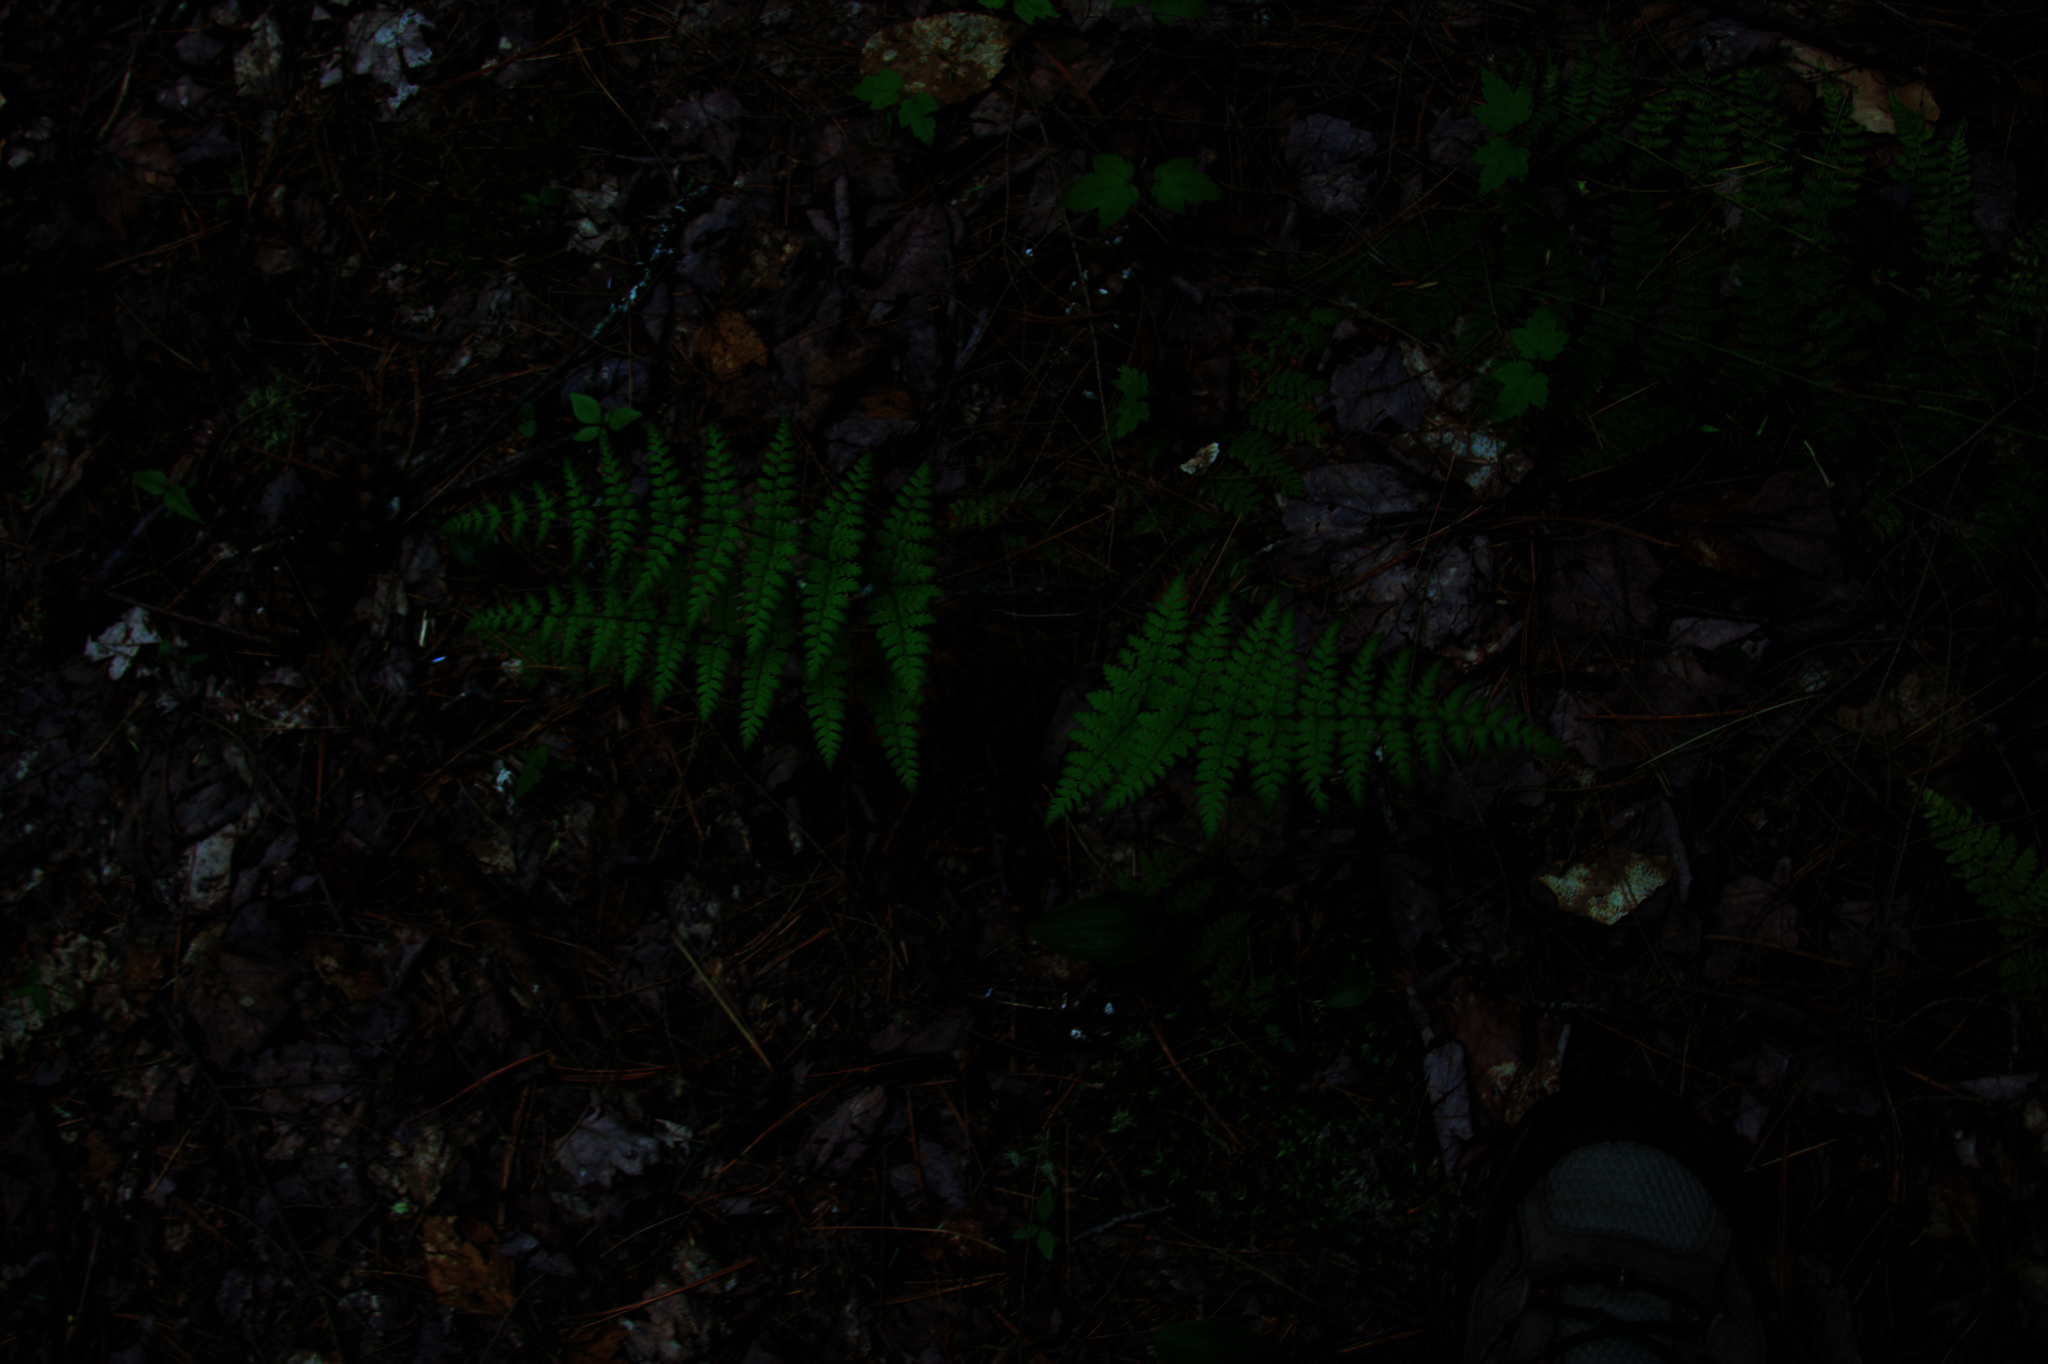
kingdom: Plantae
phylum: Tracheophyta
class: Polypodiopsida
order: Polypodiales
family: Dryopteridaceae
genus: Dryopteris
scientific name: Dryopteris intermedia
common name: Evergreen wood fern
